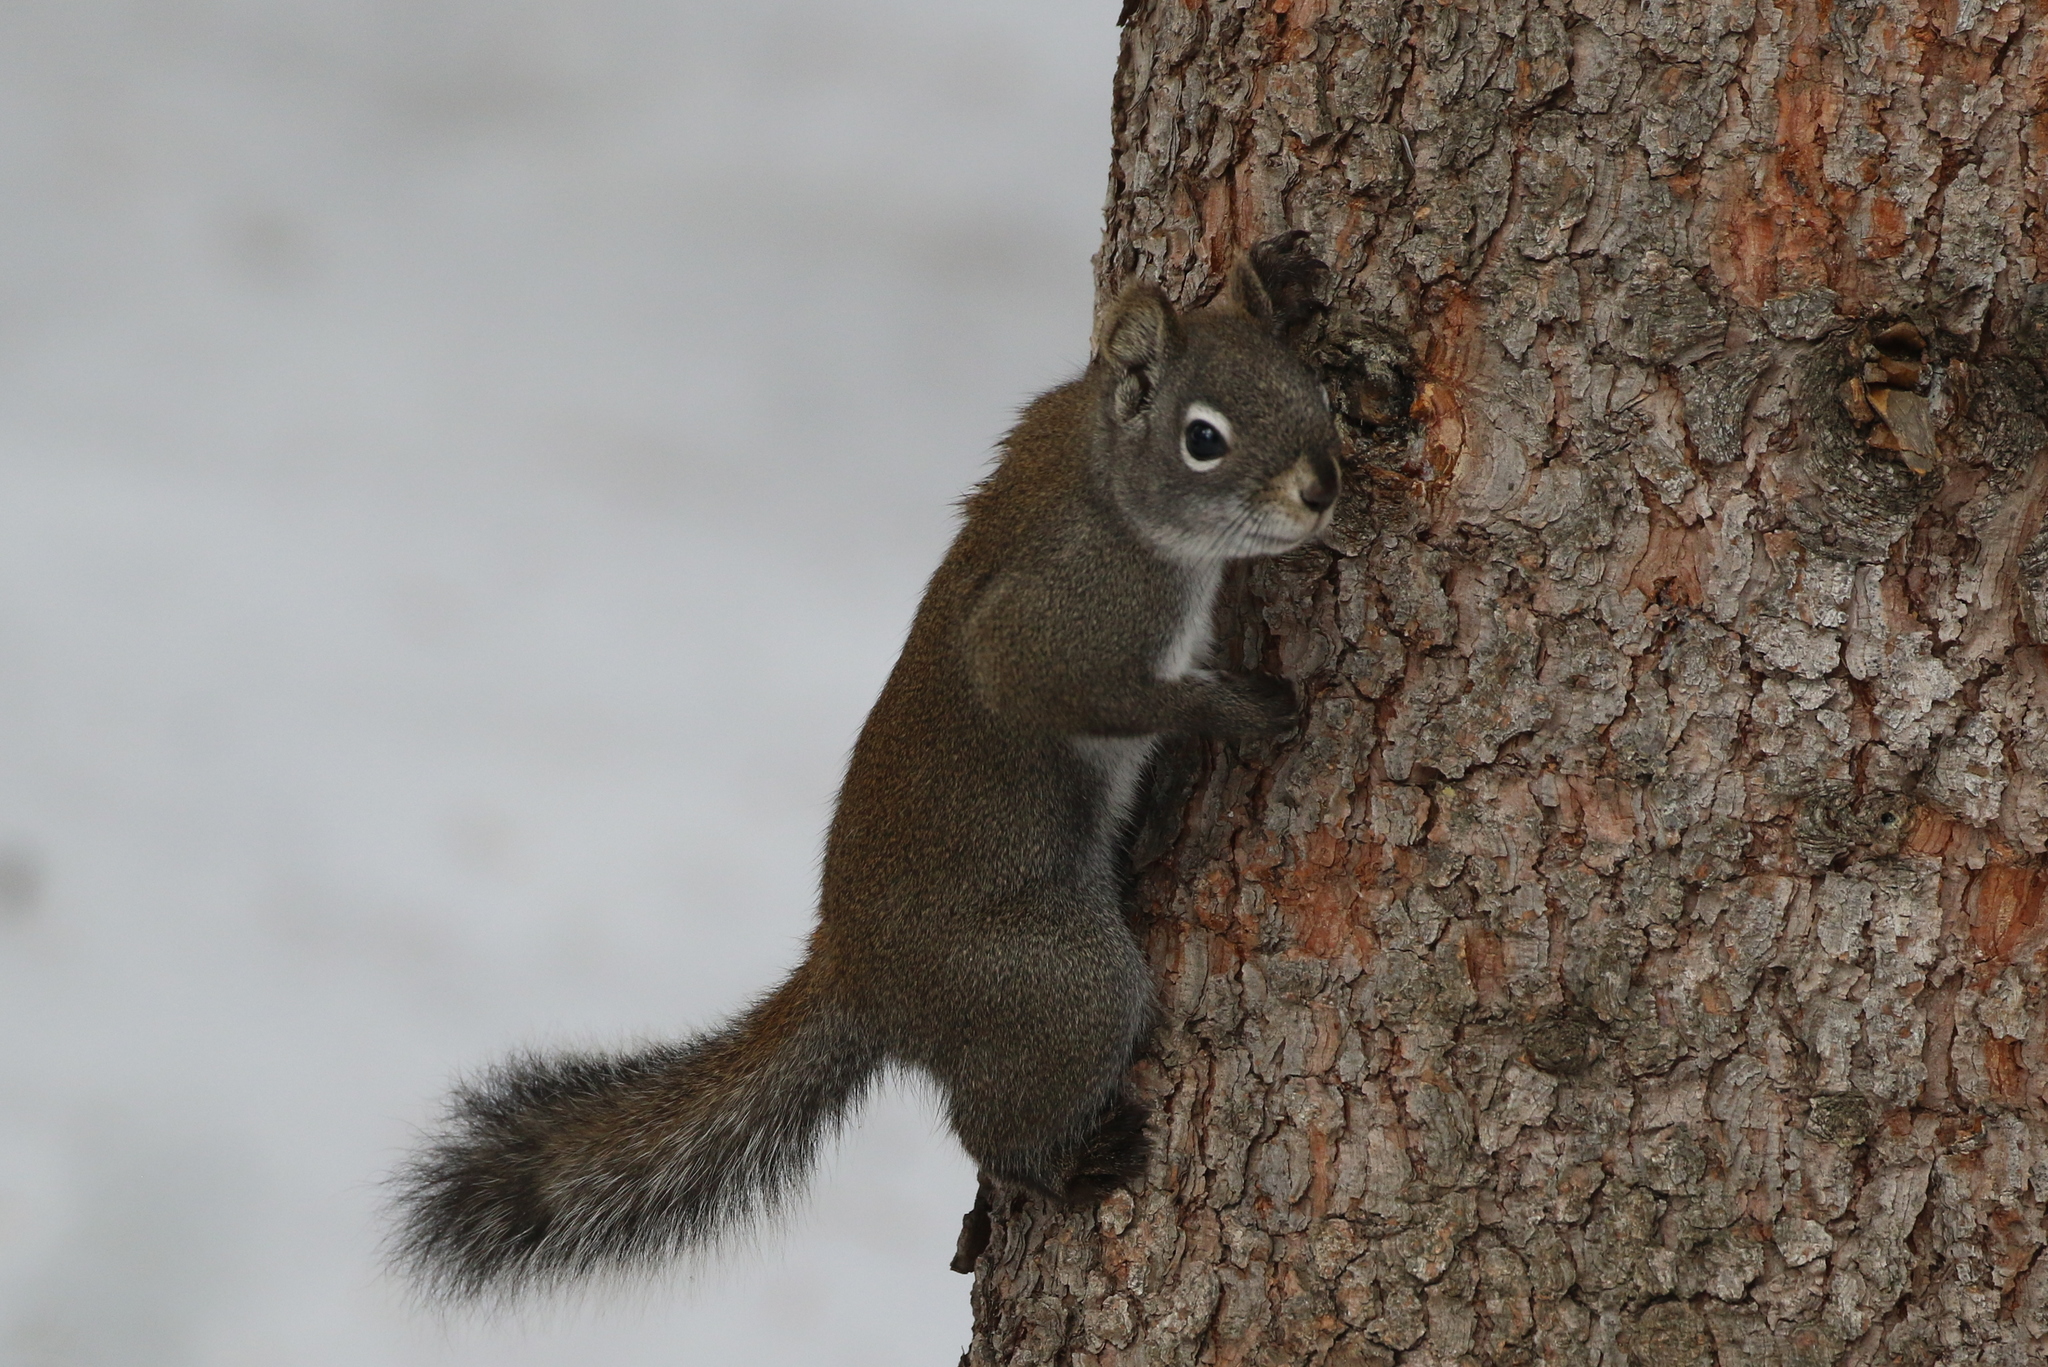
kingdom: Animalia
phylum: Chordata
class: Mammalia
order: Rodentia
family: Sciuridae
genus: Tamiasciurus
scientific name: Tamiasciurus hudsonicus
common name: Red squirrel
